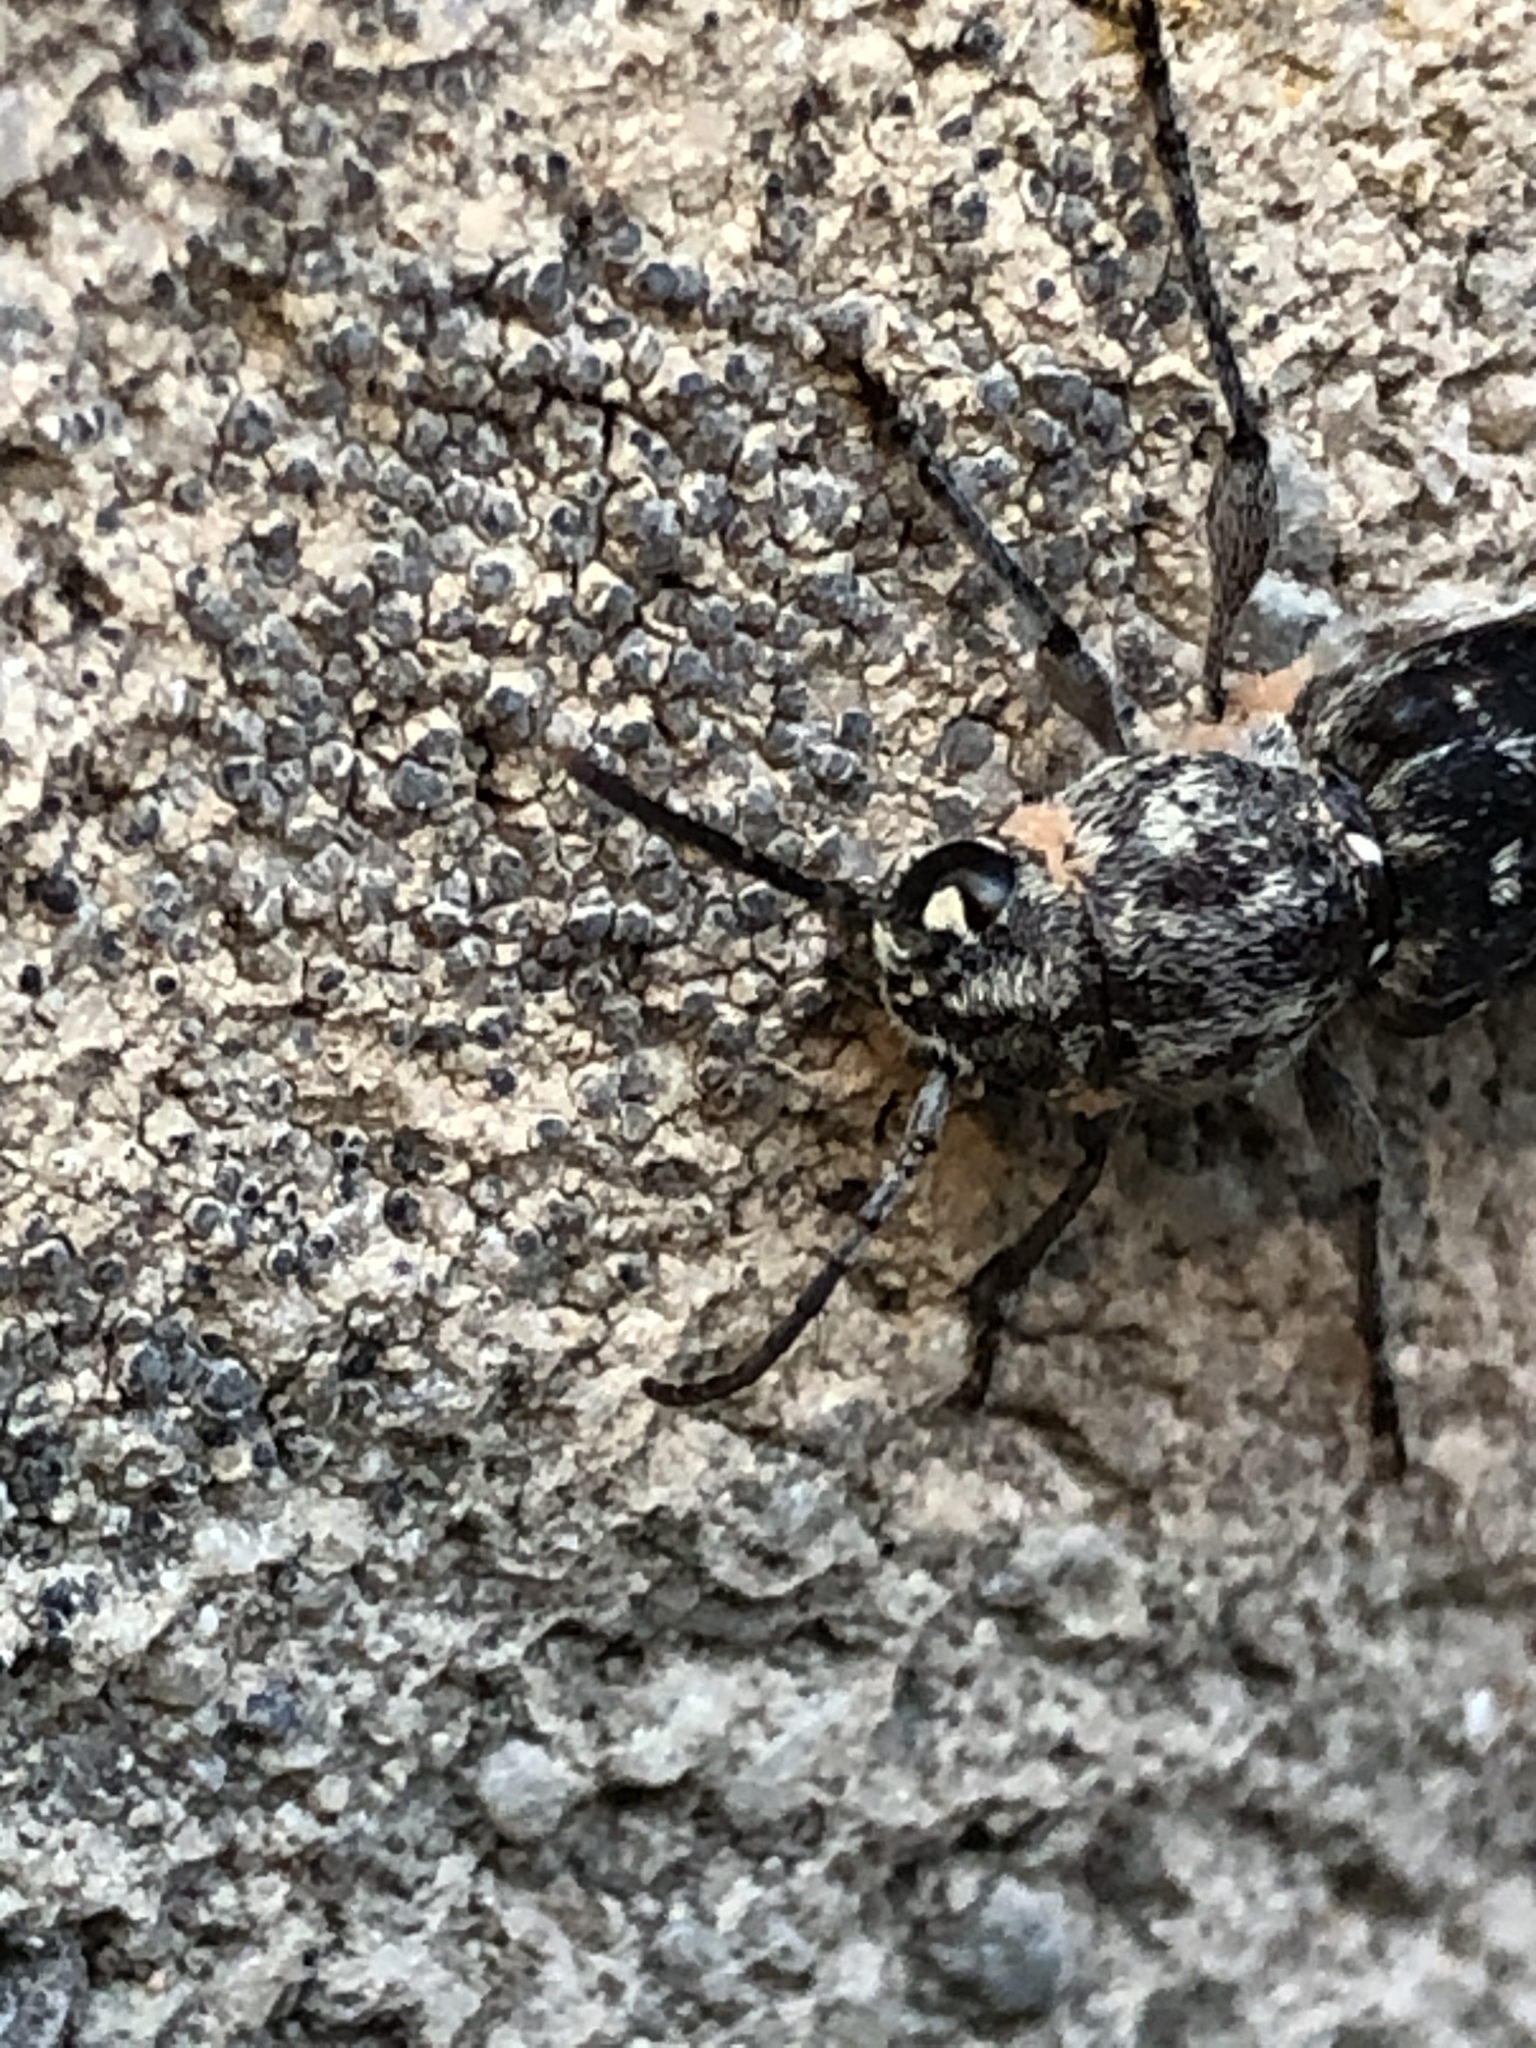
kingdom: Animalia
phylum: Arthropoda
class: Insecta
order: Coleoptera
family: Cerambycidae
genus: Xylotrechus
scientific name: Xylotrechus nauticus
